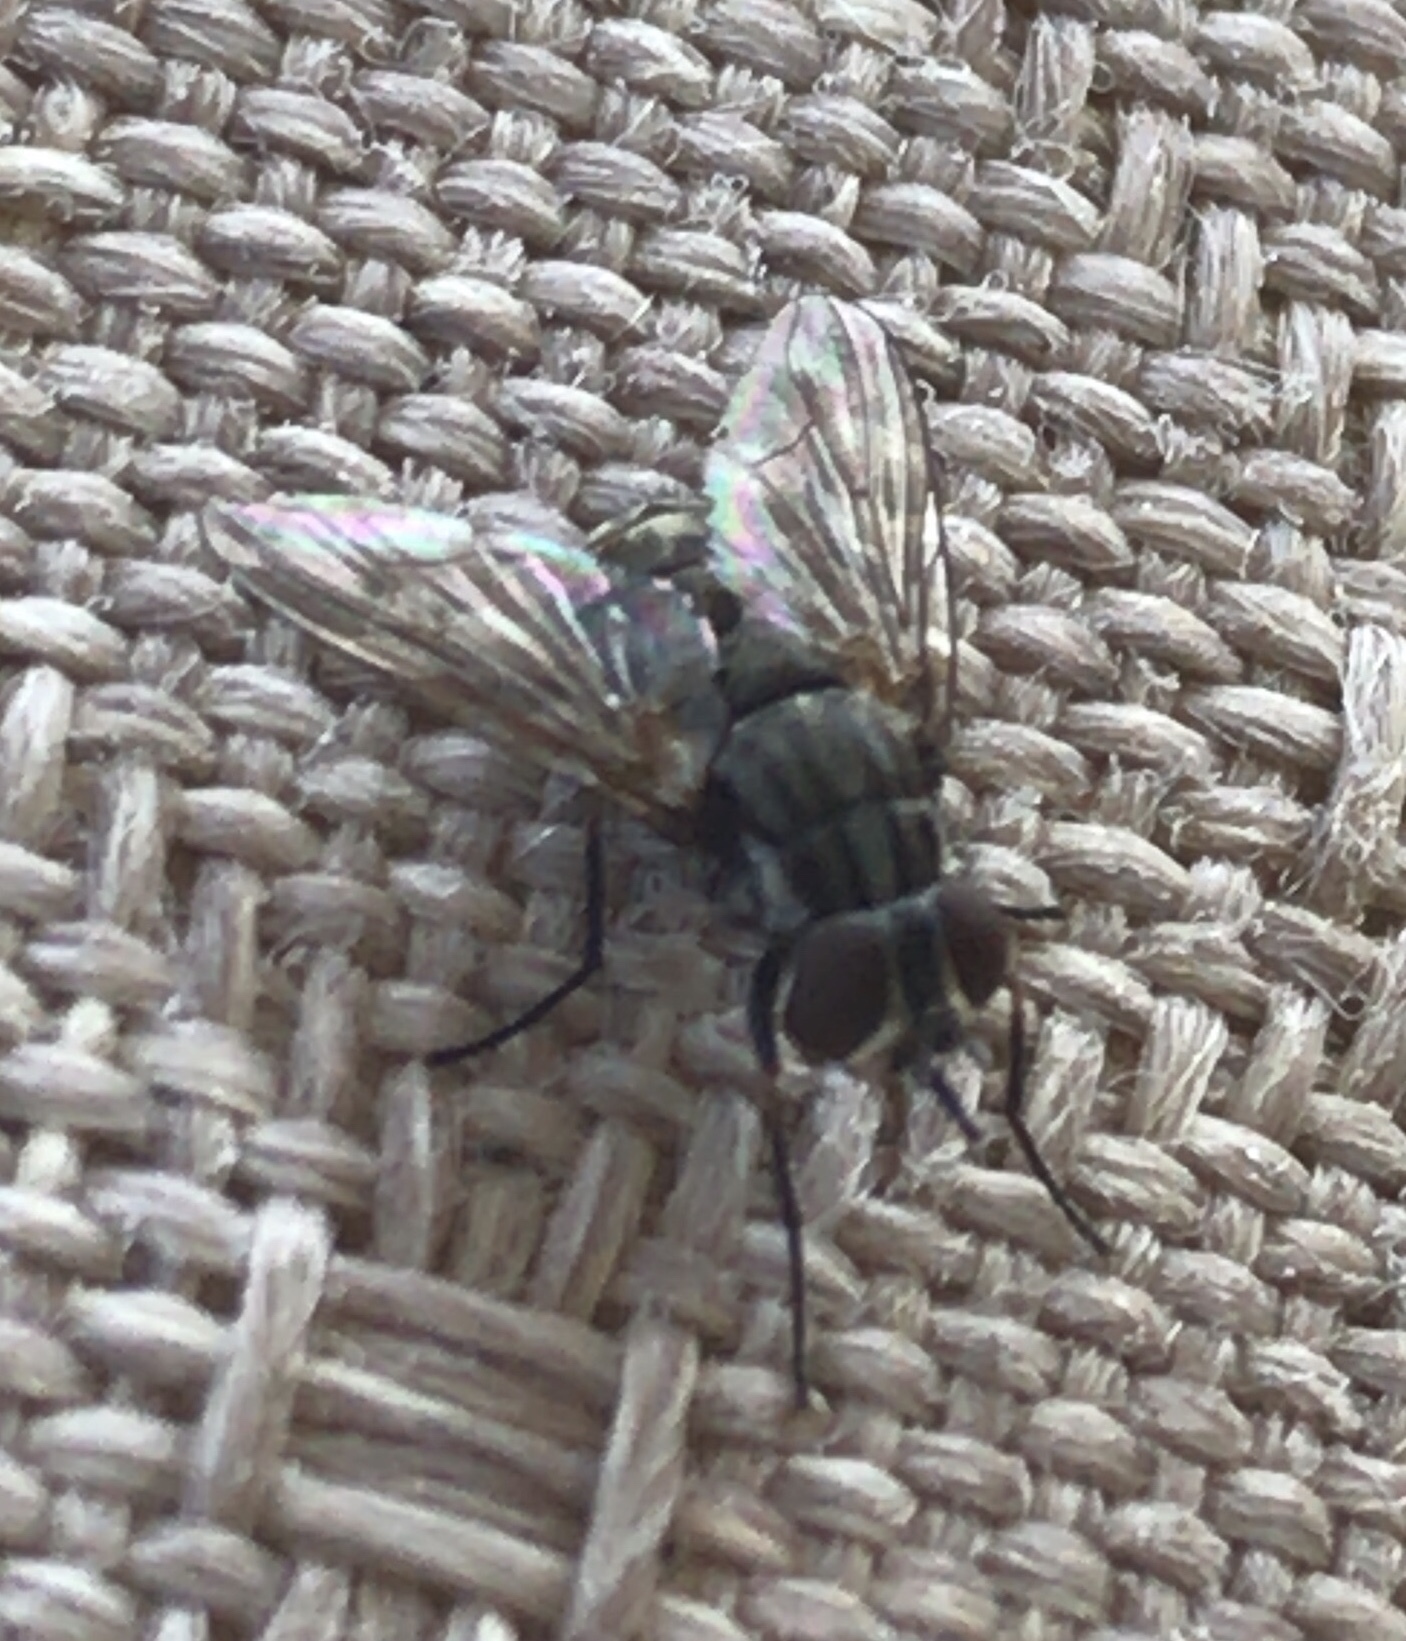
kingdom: Animalia
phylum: Arthropoda
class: Insecta
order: Diptera
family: Muscidae
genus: Stomoxys
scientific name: Stomoxys calcitrans
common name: Stable fly
